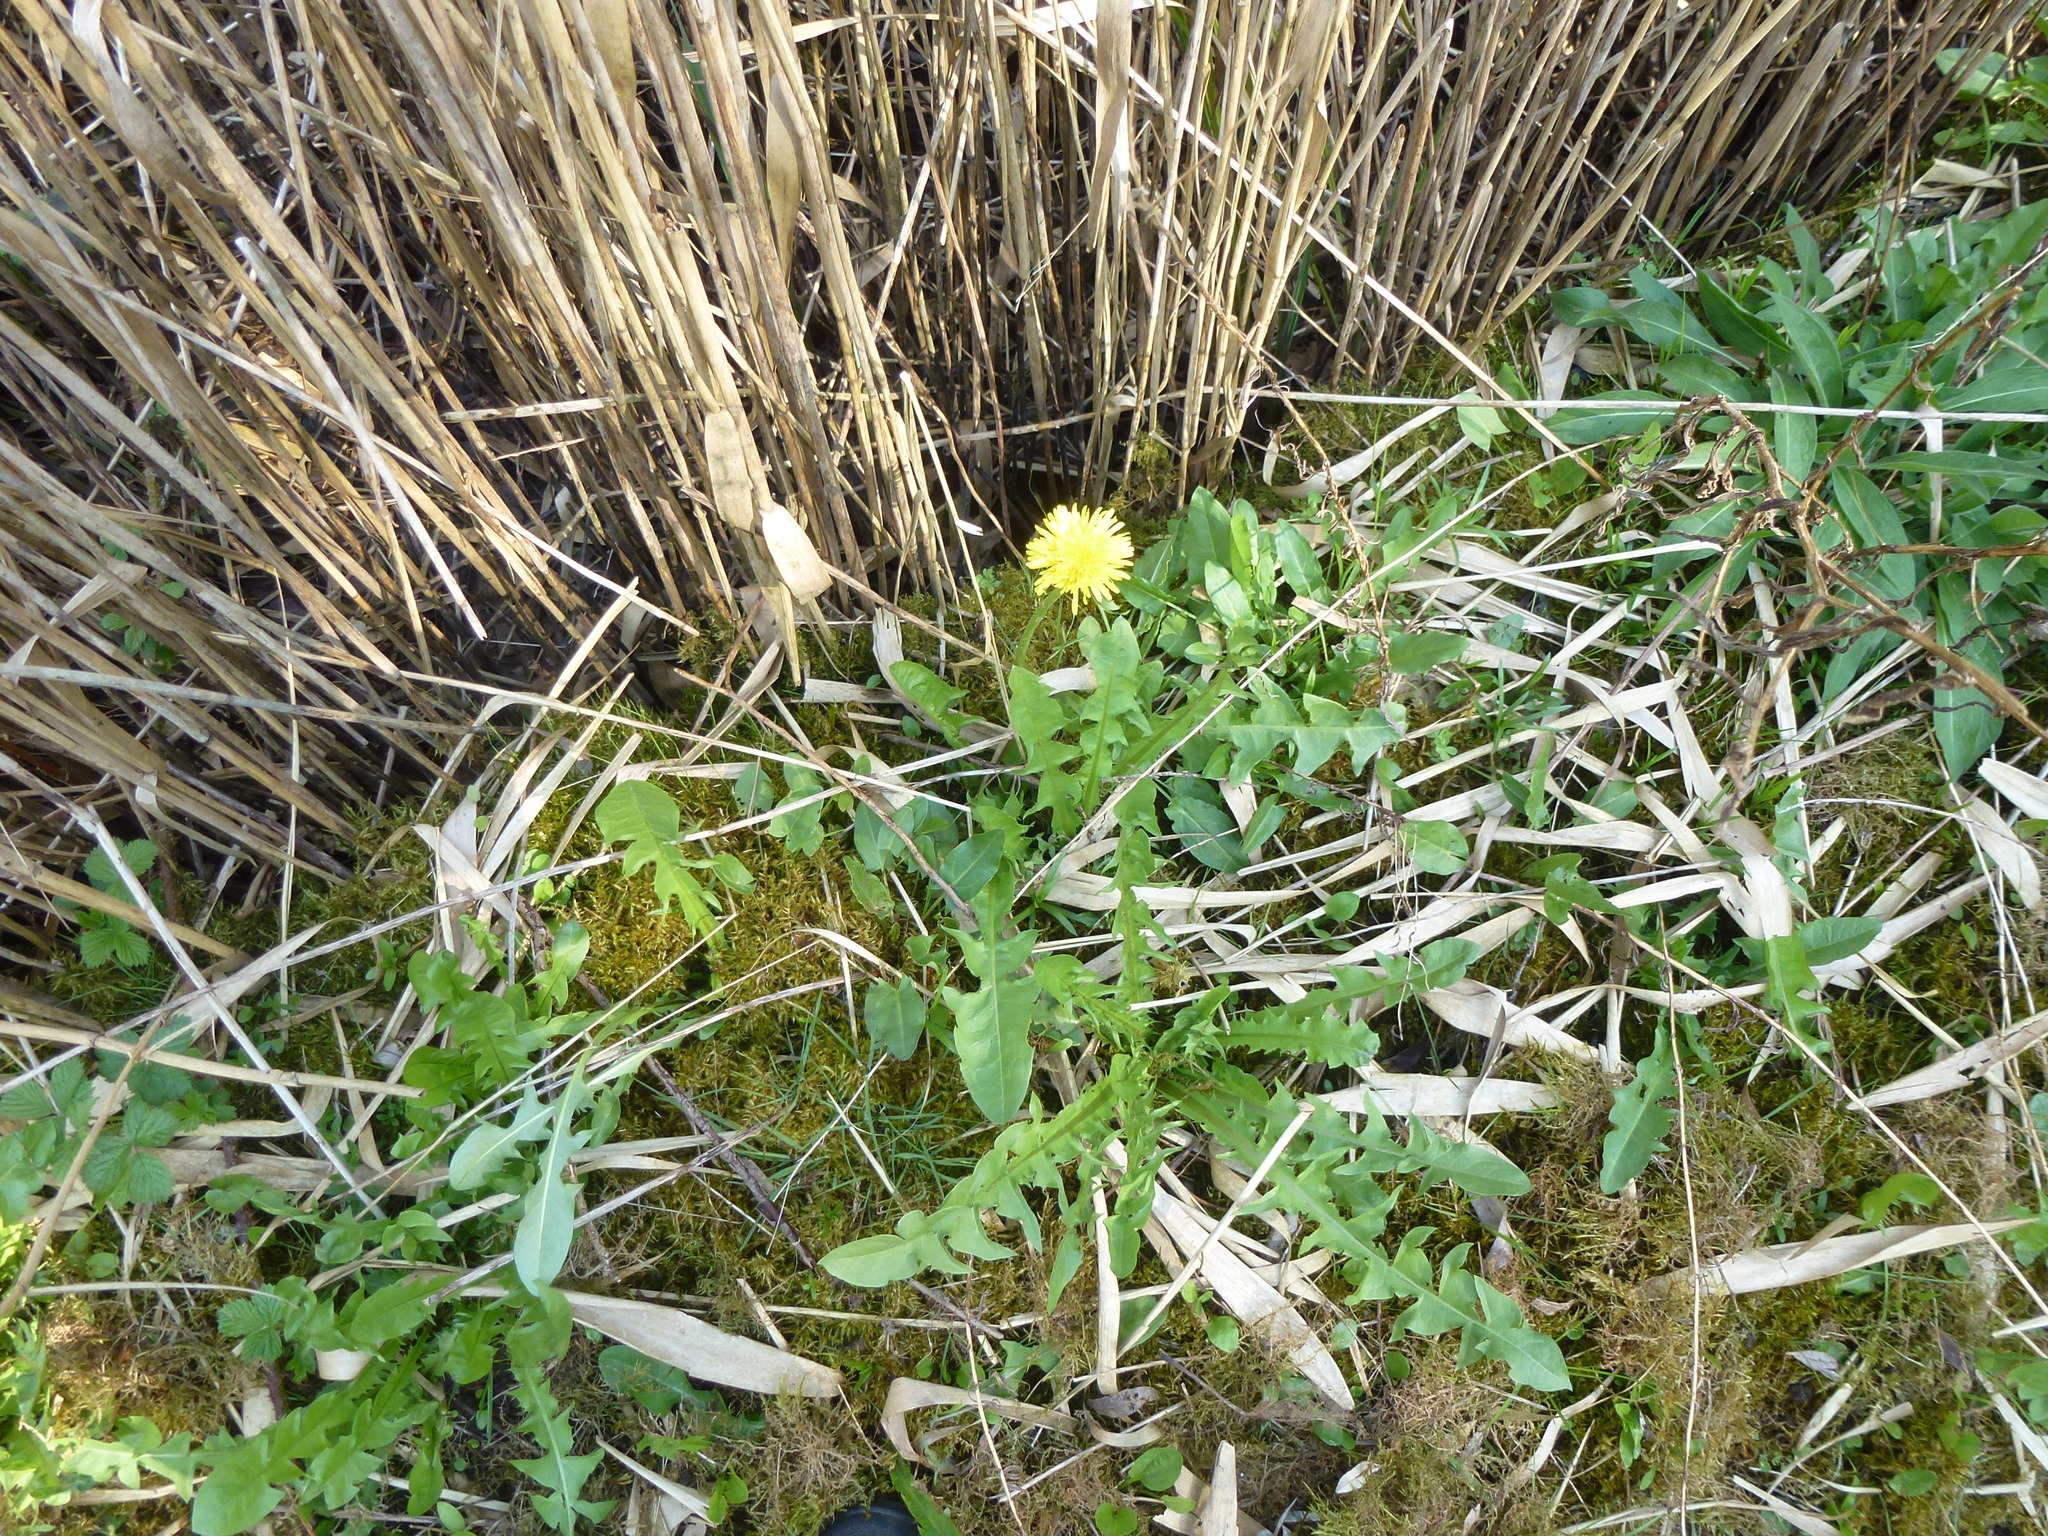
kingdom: Plantae
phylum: Tracheophyta
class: Magnoliopsida
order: Asterales
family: Asteraceae
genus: Taraxacum
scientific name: Taraxacum officinale
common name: Common dandelion
